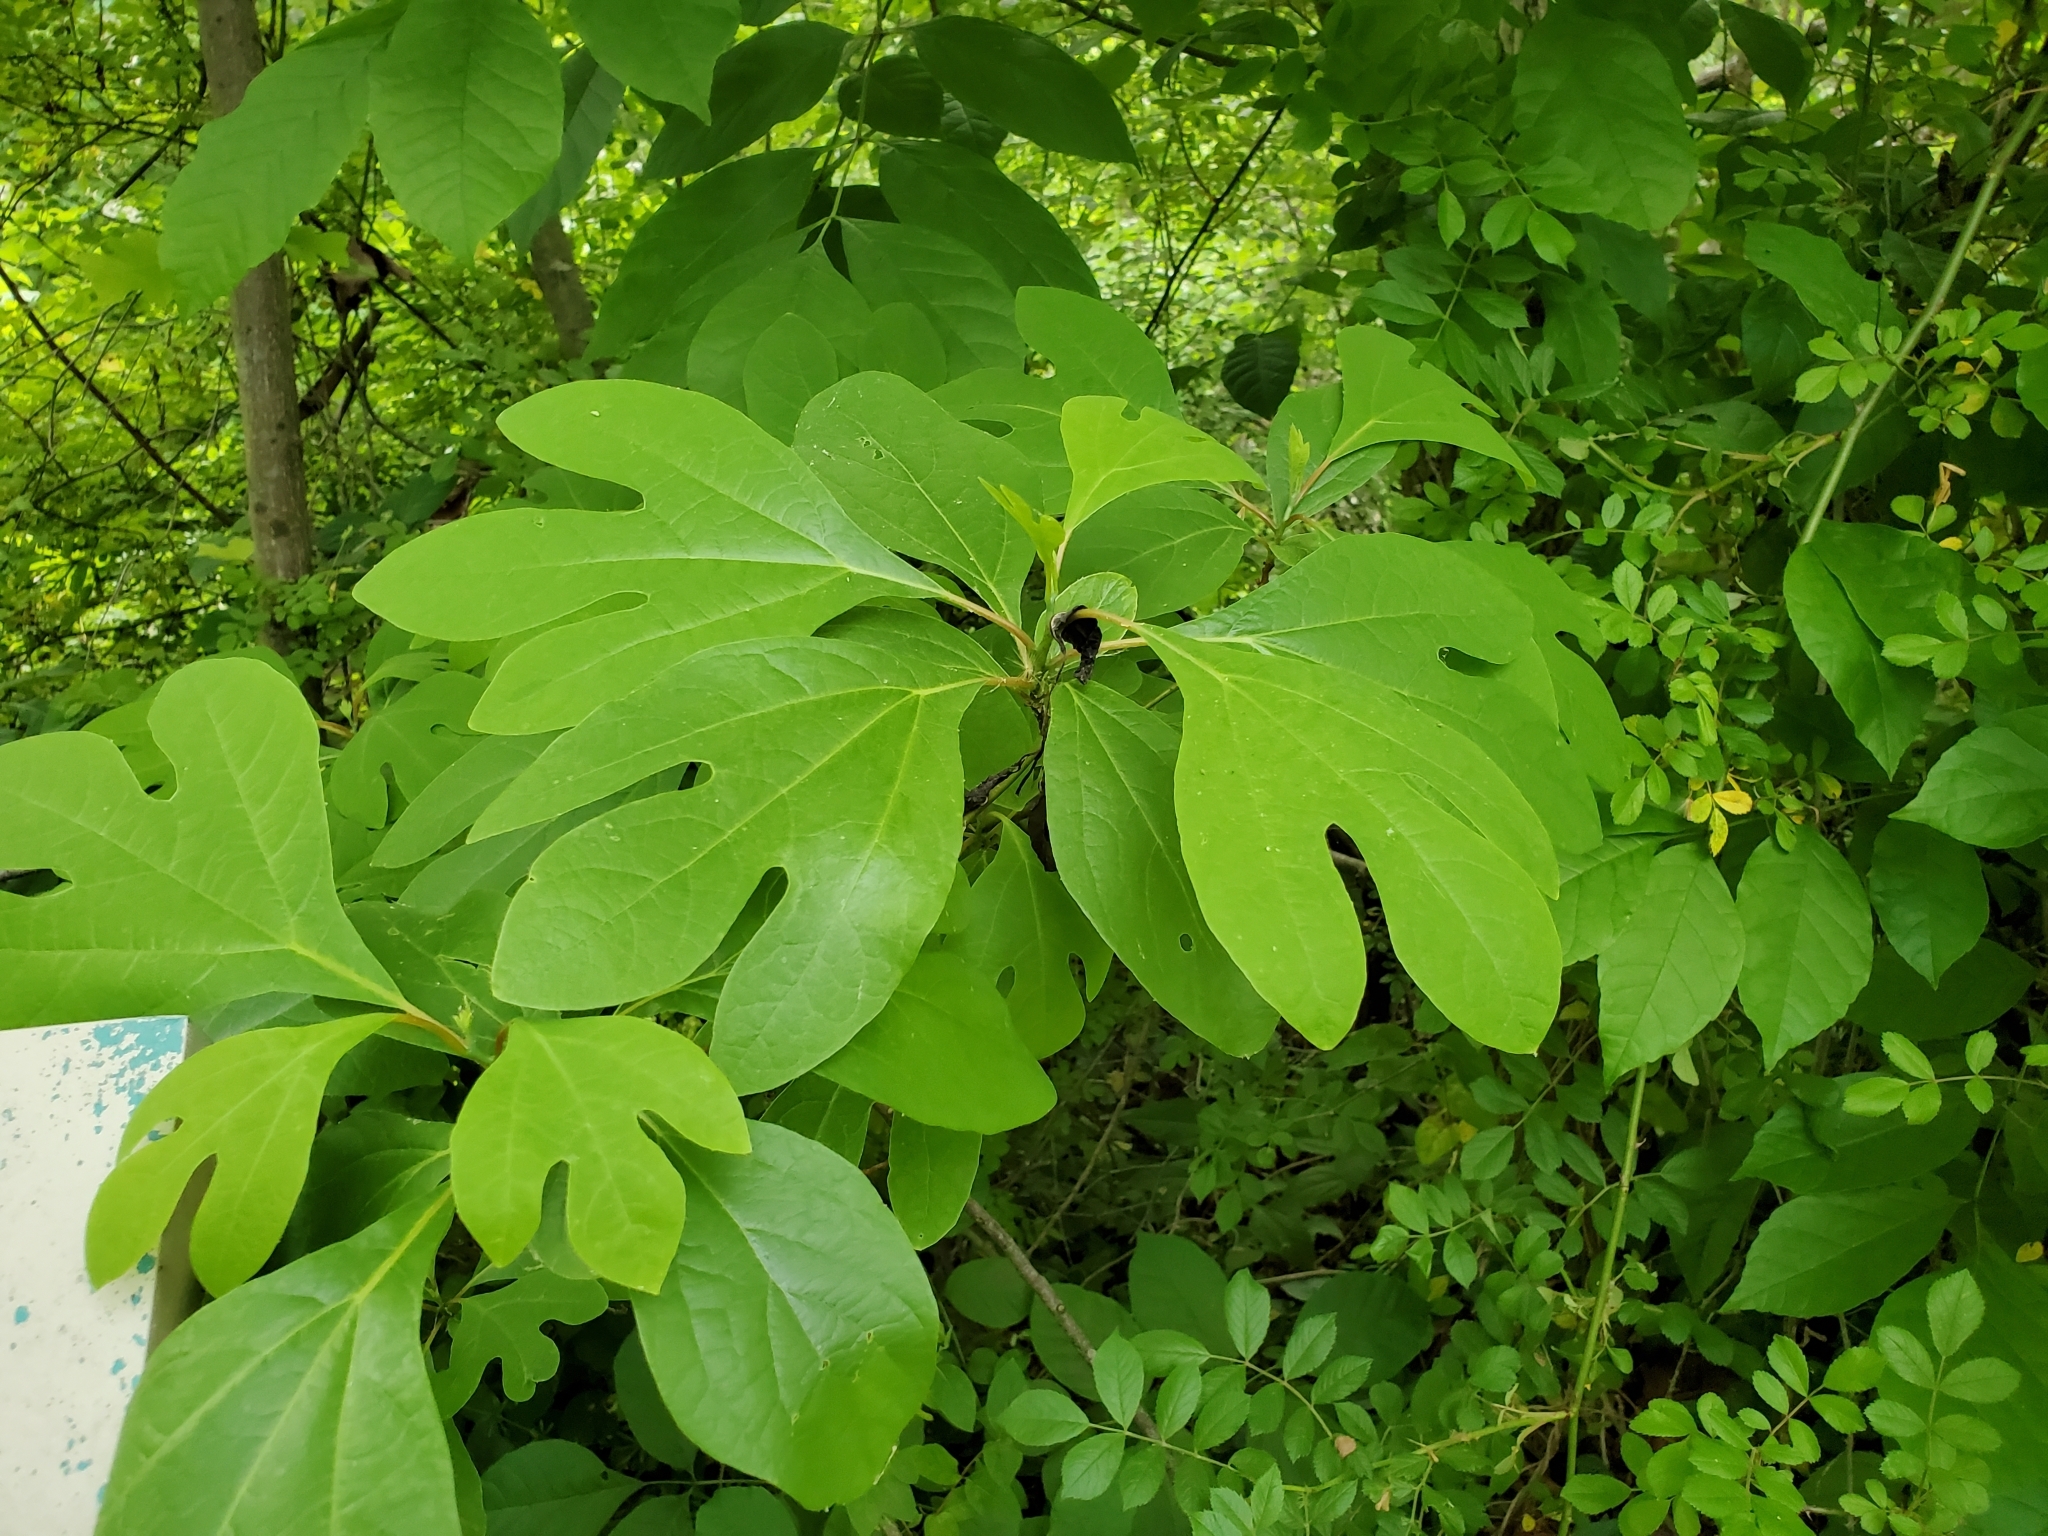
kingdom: Plantae
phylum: Tracheophyta
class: Magnoliopsida
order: Laurales
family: Lauraceae
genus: Sassafras
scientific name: Sassafras albidum
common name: Sassafras
